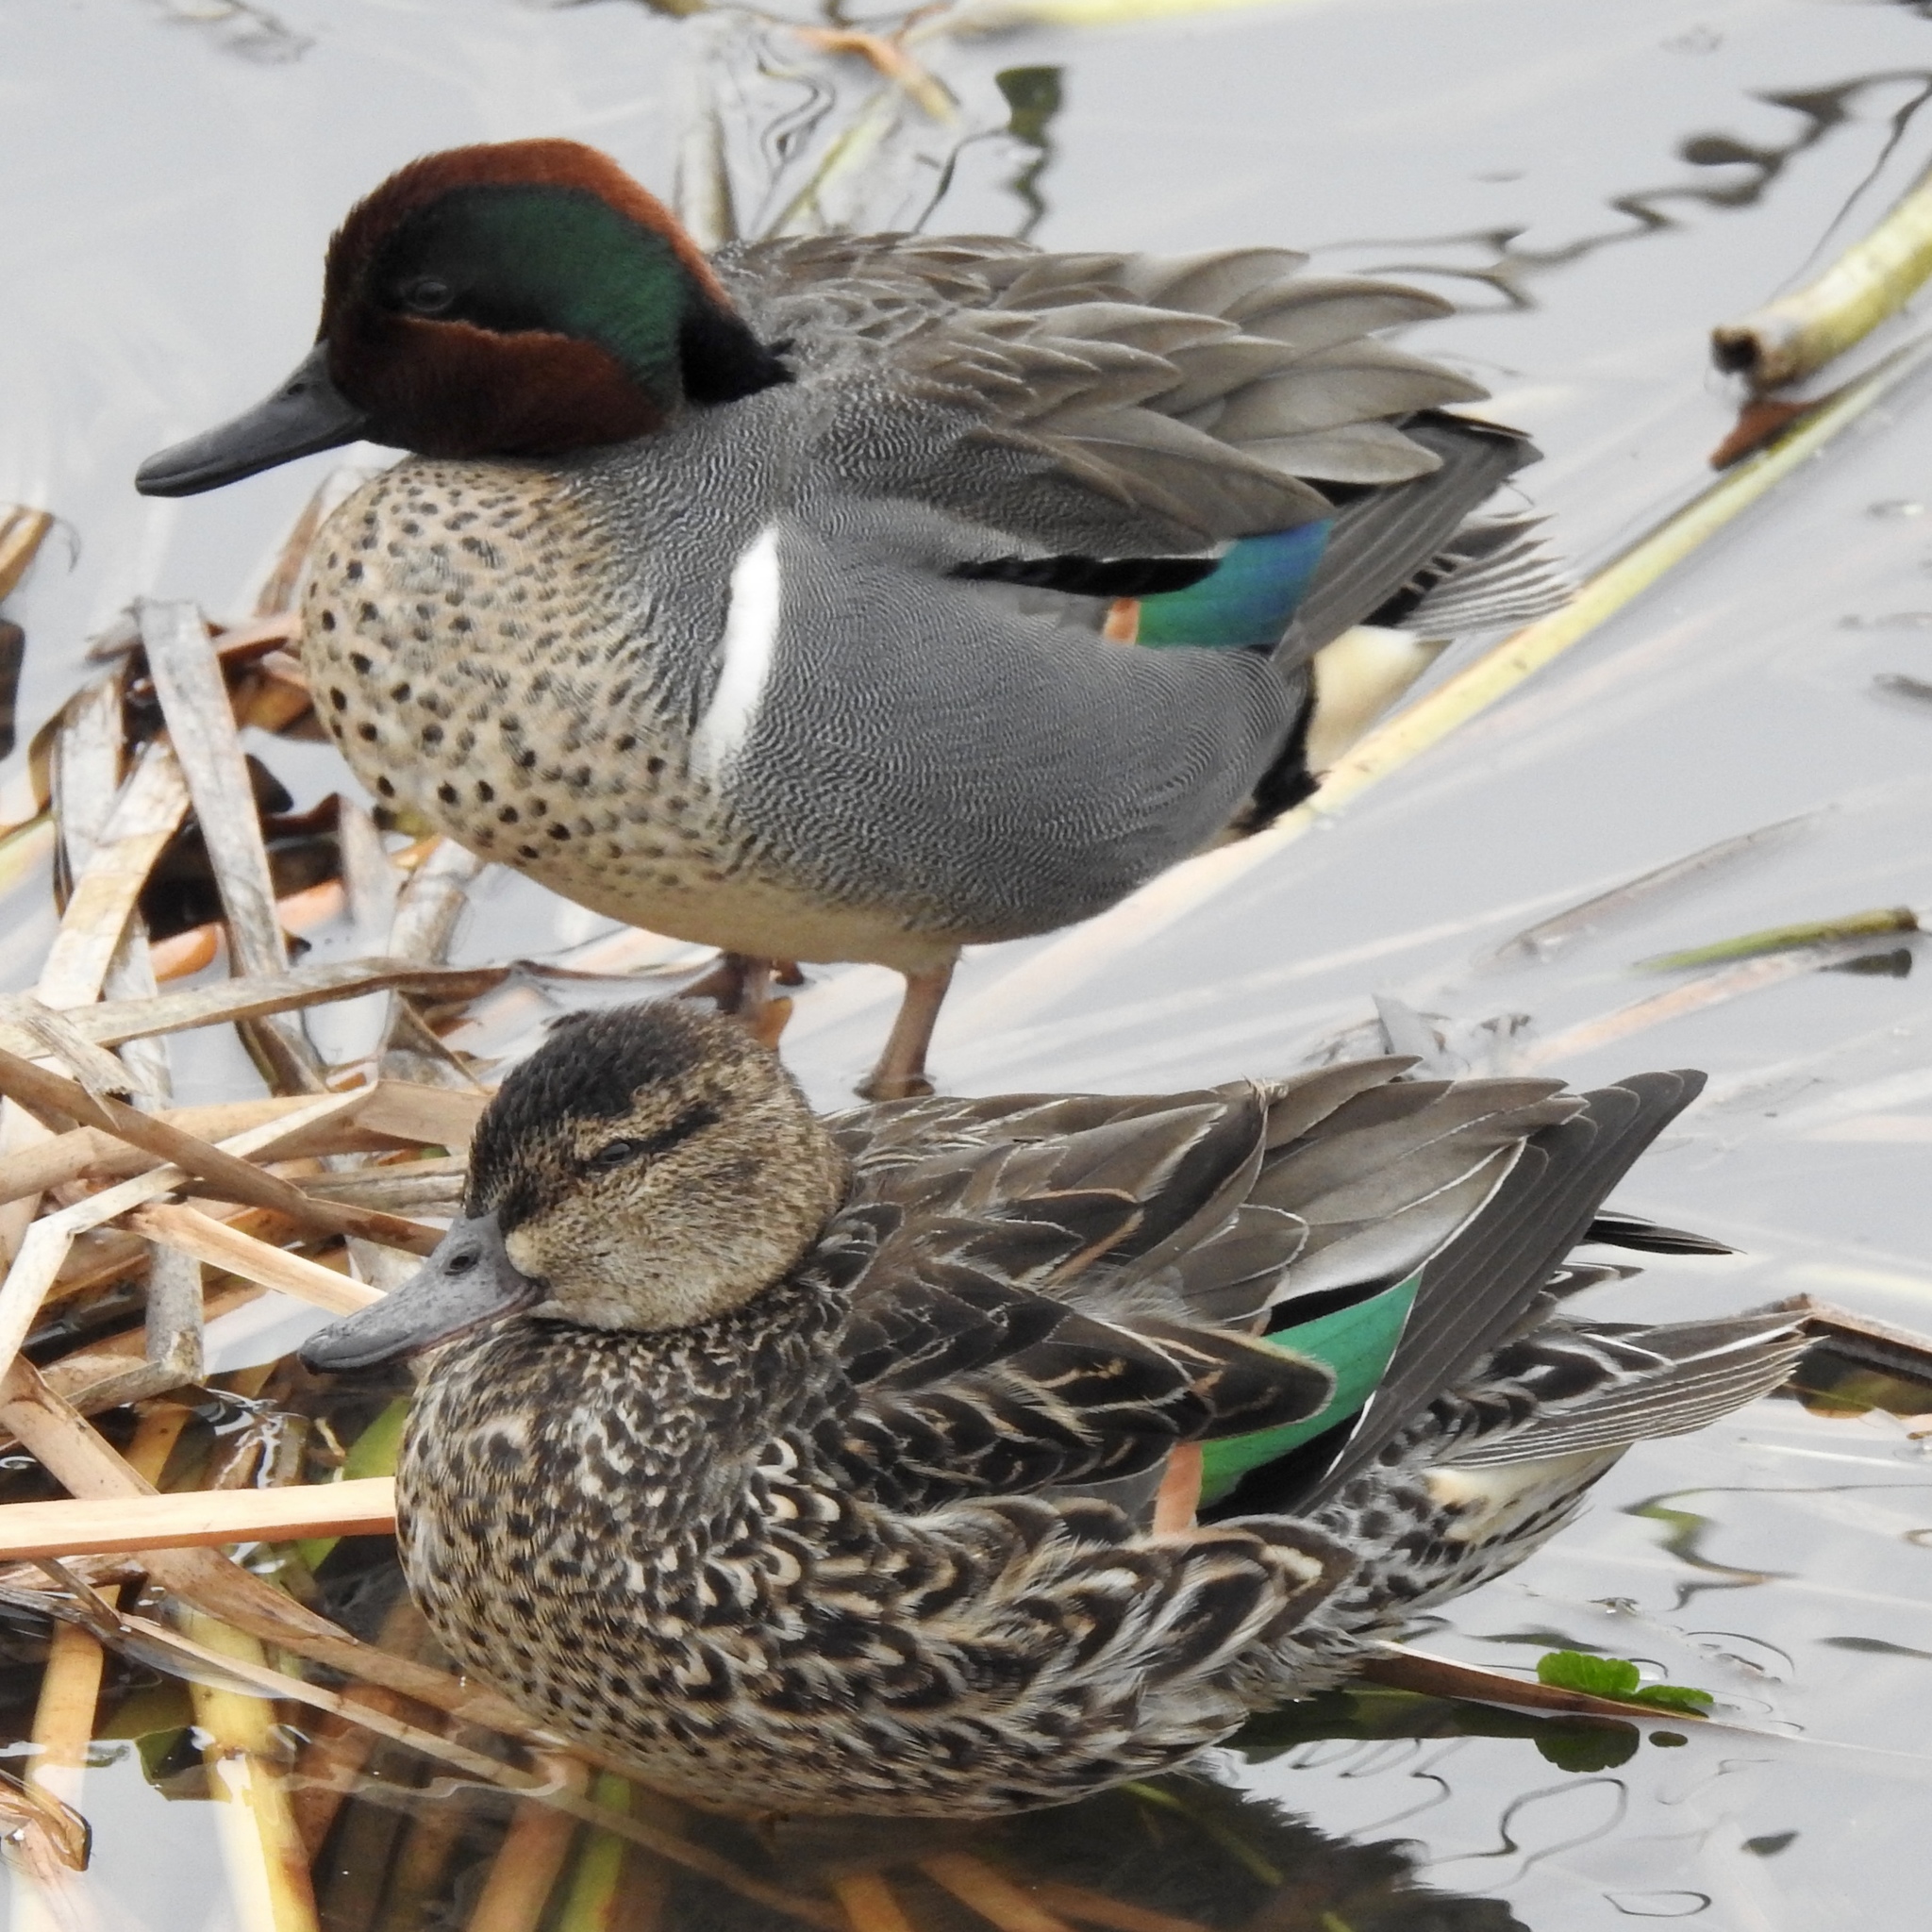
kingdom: Animalia
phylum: Chordata
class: Aves
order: Anseriformes
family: Anatidae
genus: Anas
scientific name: Anas crecca
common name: Eurasian teal
